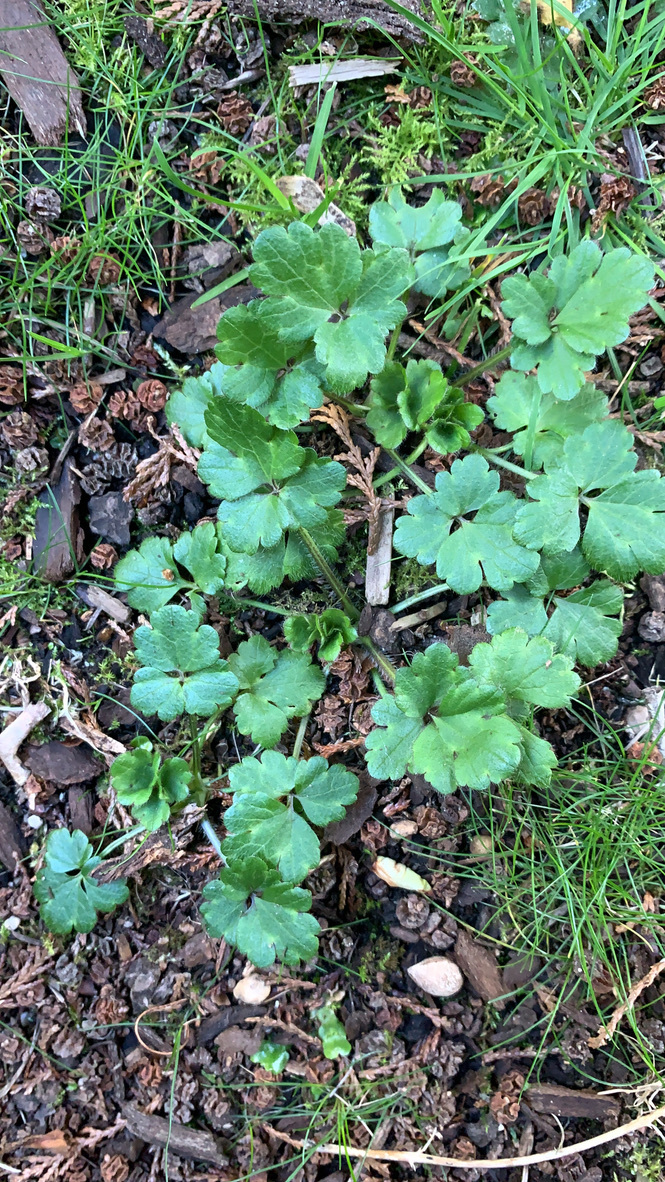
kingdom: Plantae
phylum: Tracheophyta
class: Magnoliopsida
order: Ranunculales
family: Ranunculaceae
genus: Ranunculus
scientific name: Ranunculus repens
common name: Creeping buttercup
